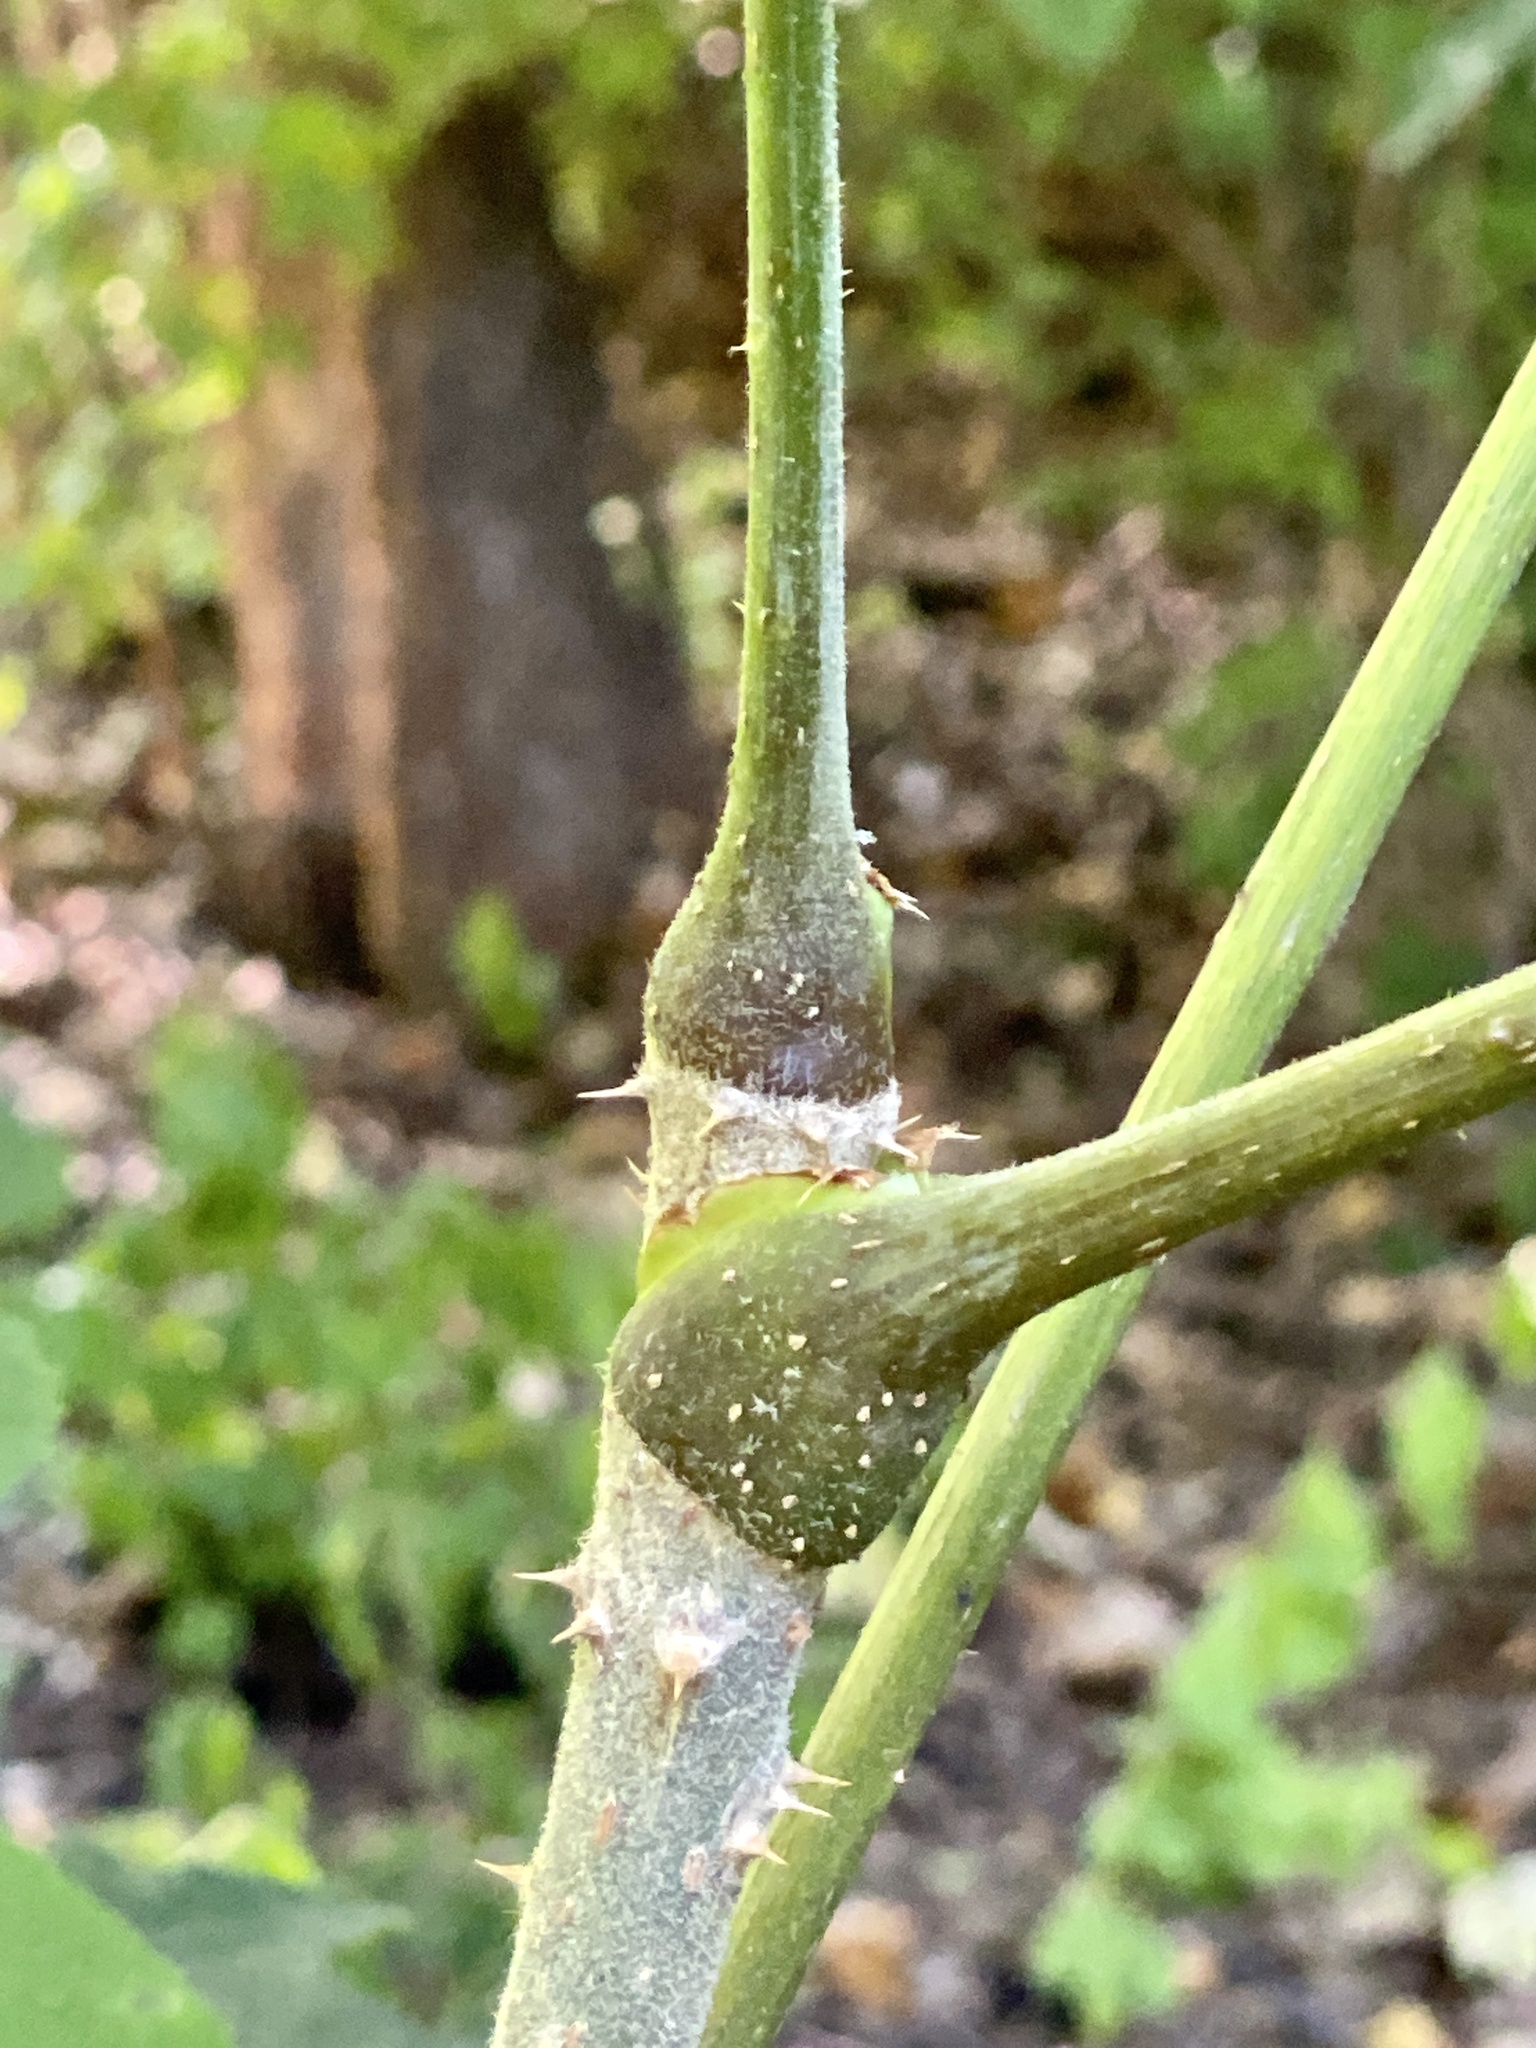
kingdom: Plantae
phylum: Tracheophyta
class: Magnoliopsida
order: Apiales
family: Araliaceae
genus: Aralia
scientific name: Aralia elata
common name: Japanese angelica-tree
